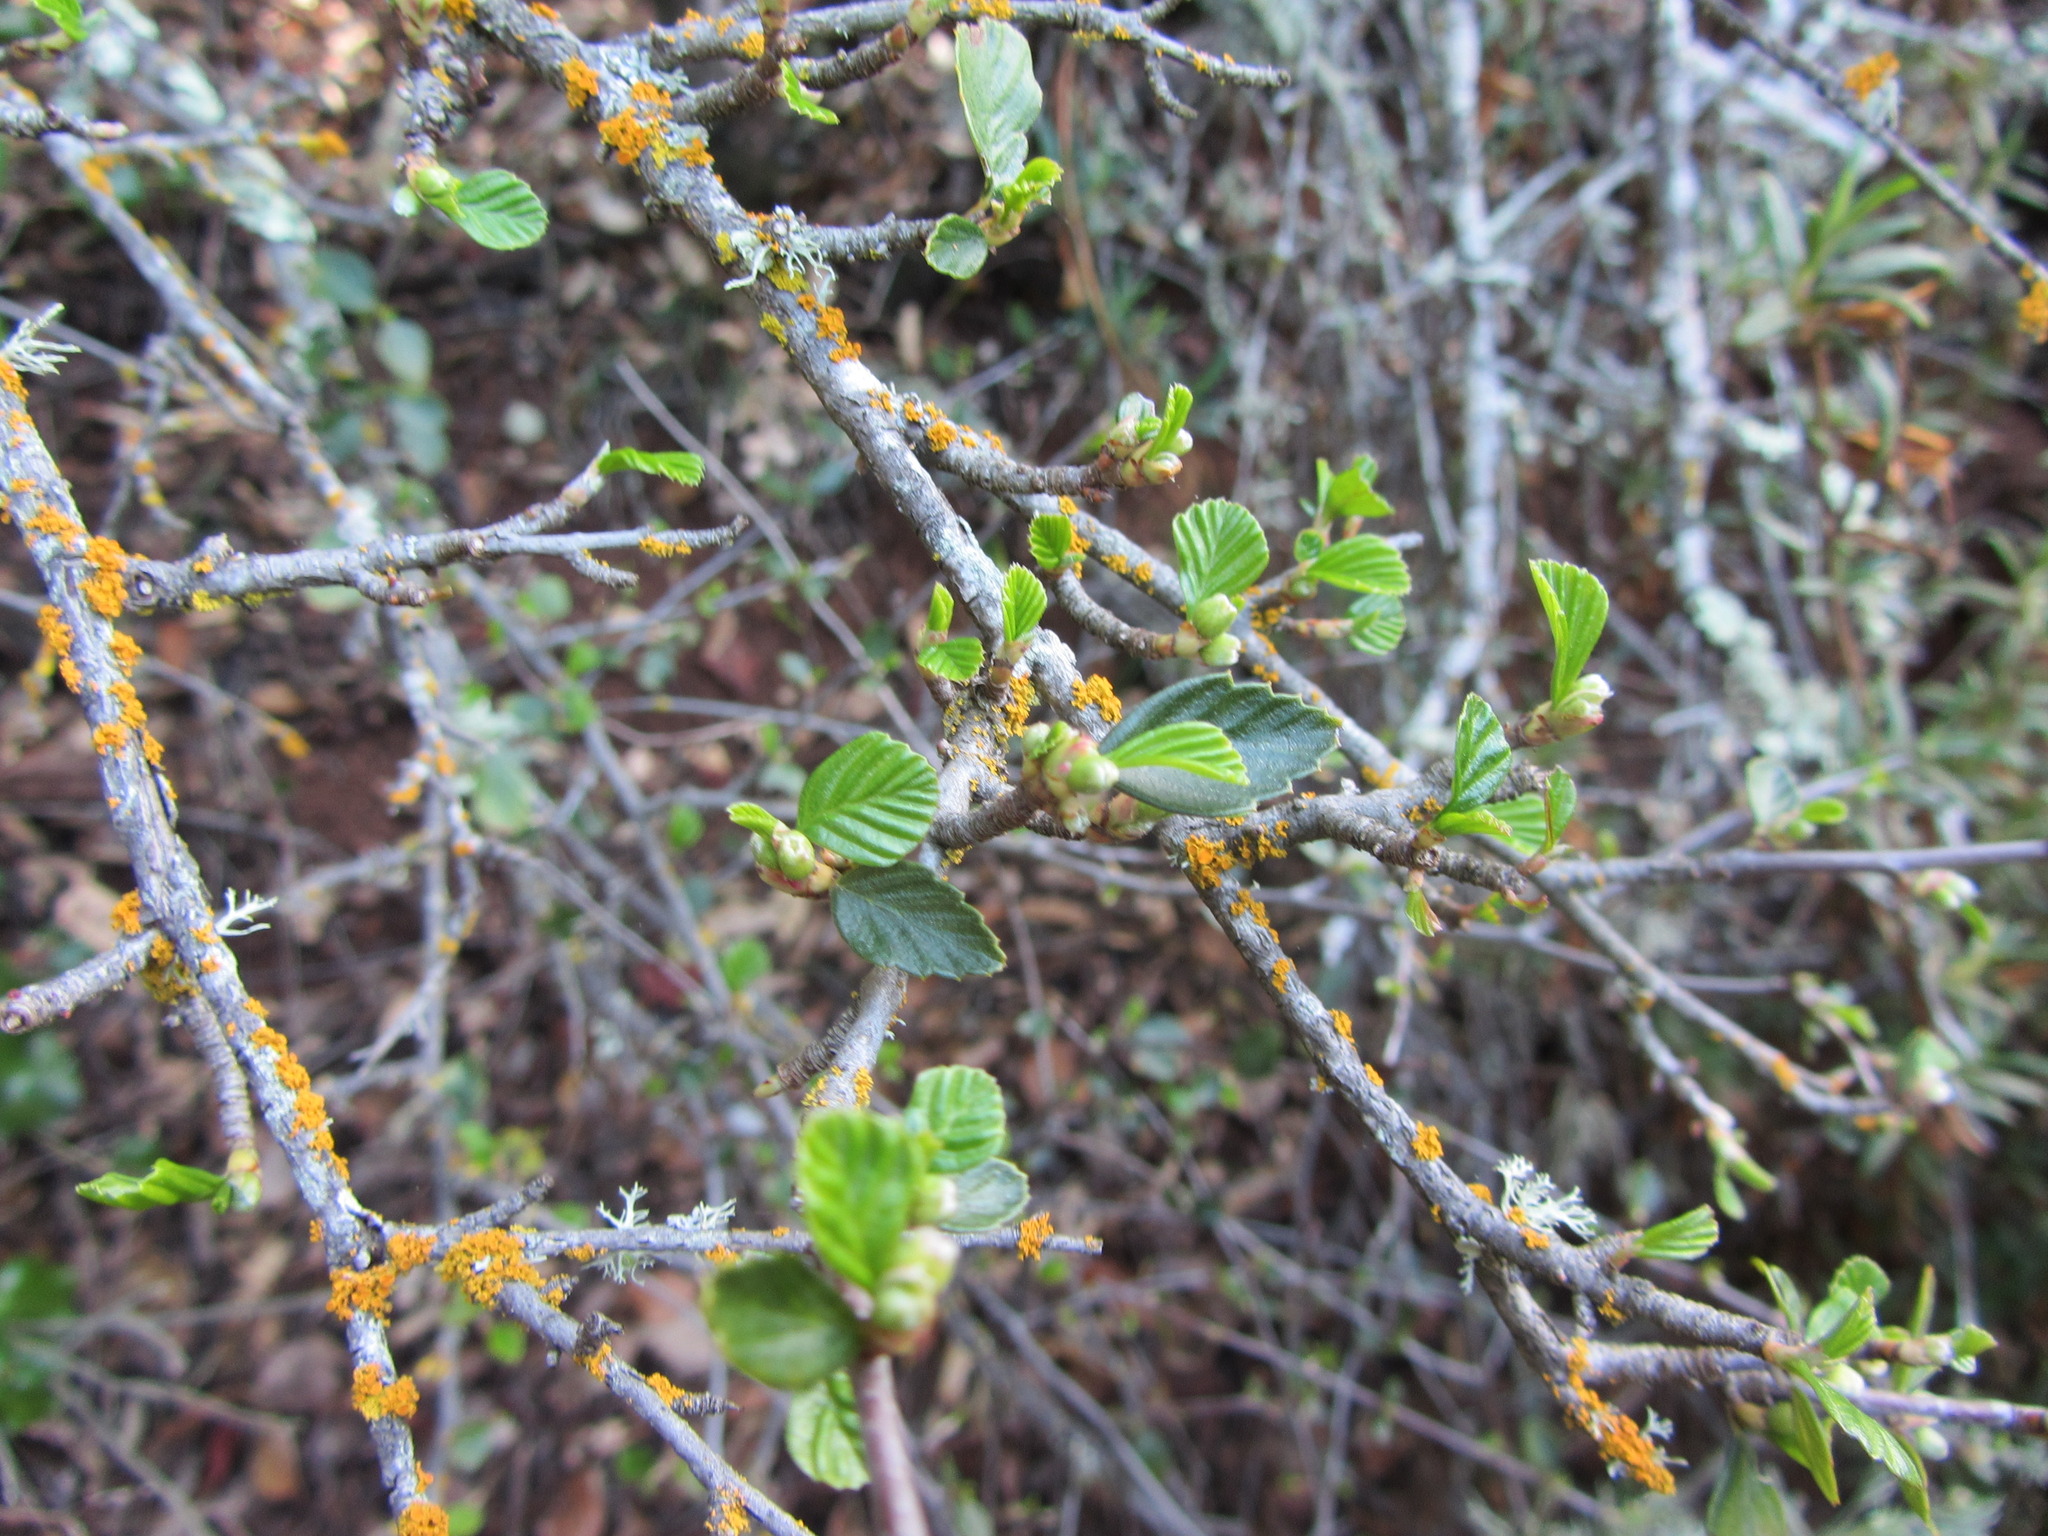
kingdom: Plantae
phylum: Tracheophyta
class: Magnoliopsida
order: Rosales
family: Rosaceae
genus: Cercocarpus
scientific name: Cercocarpus betuloides
